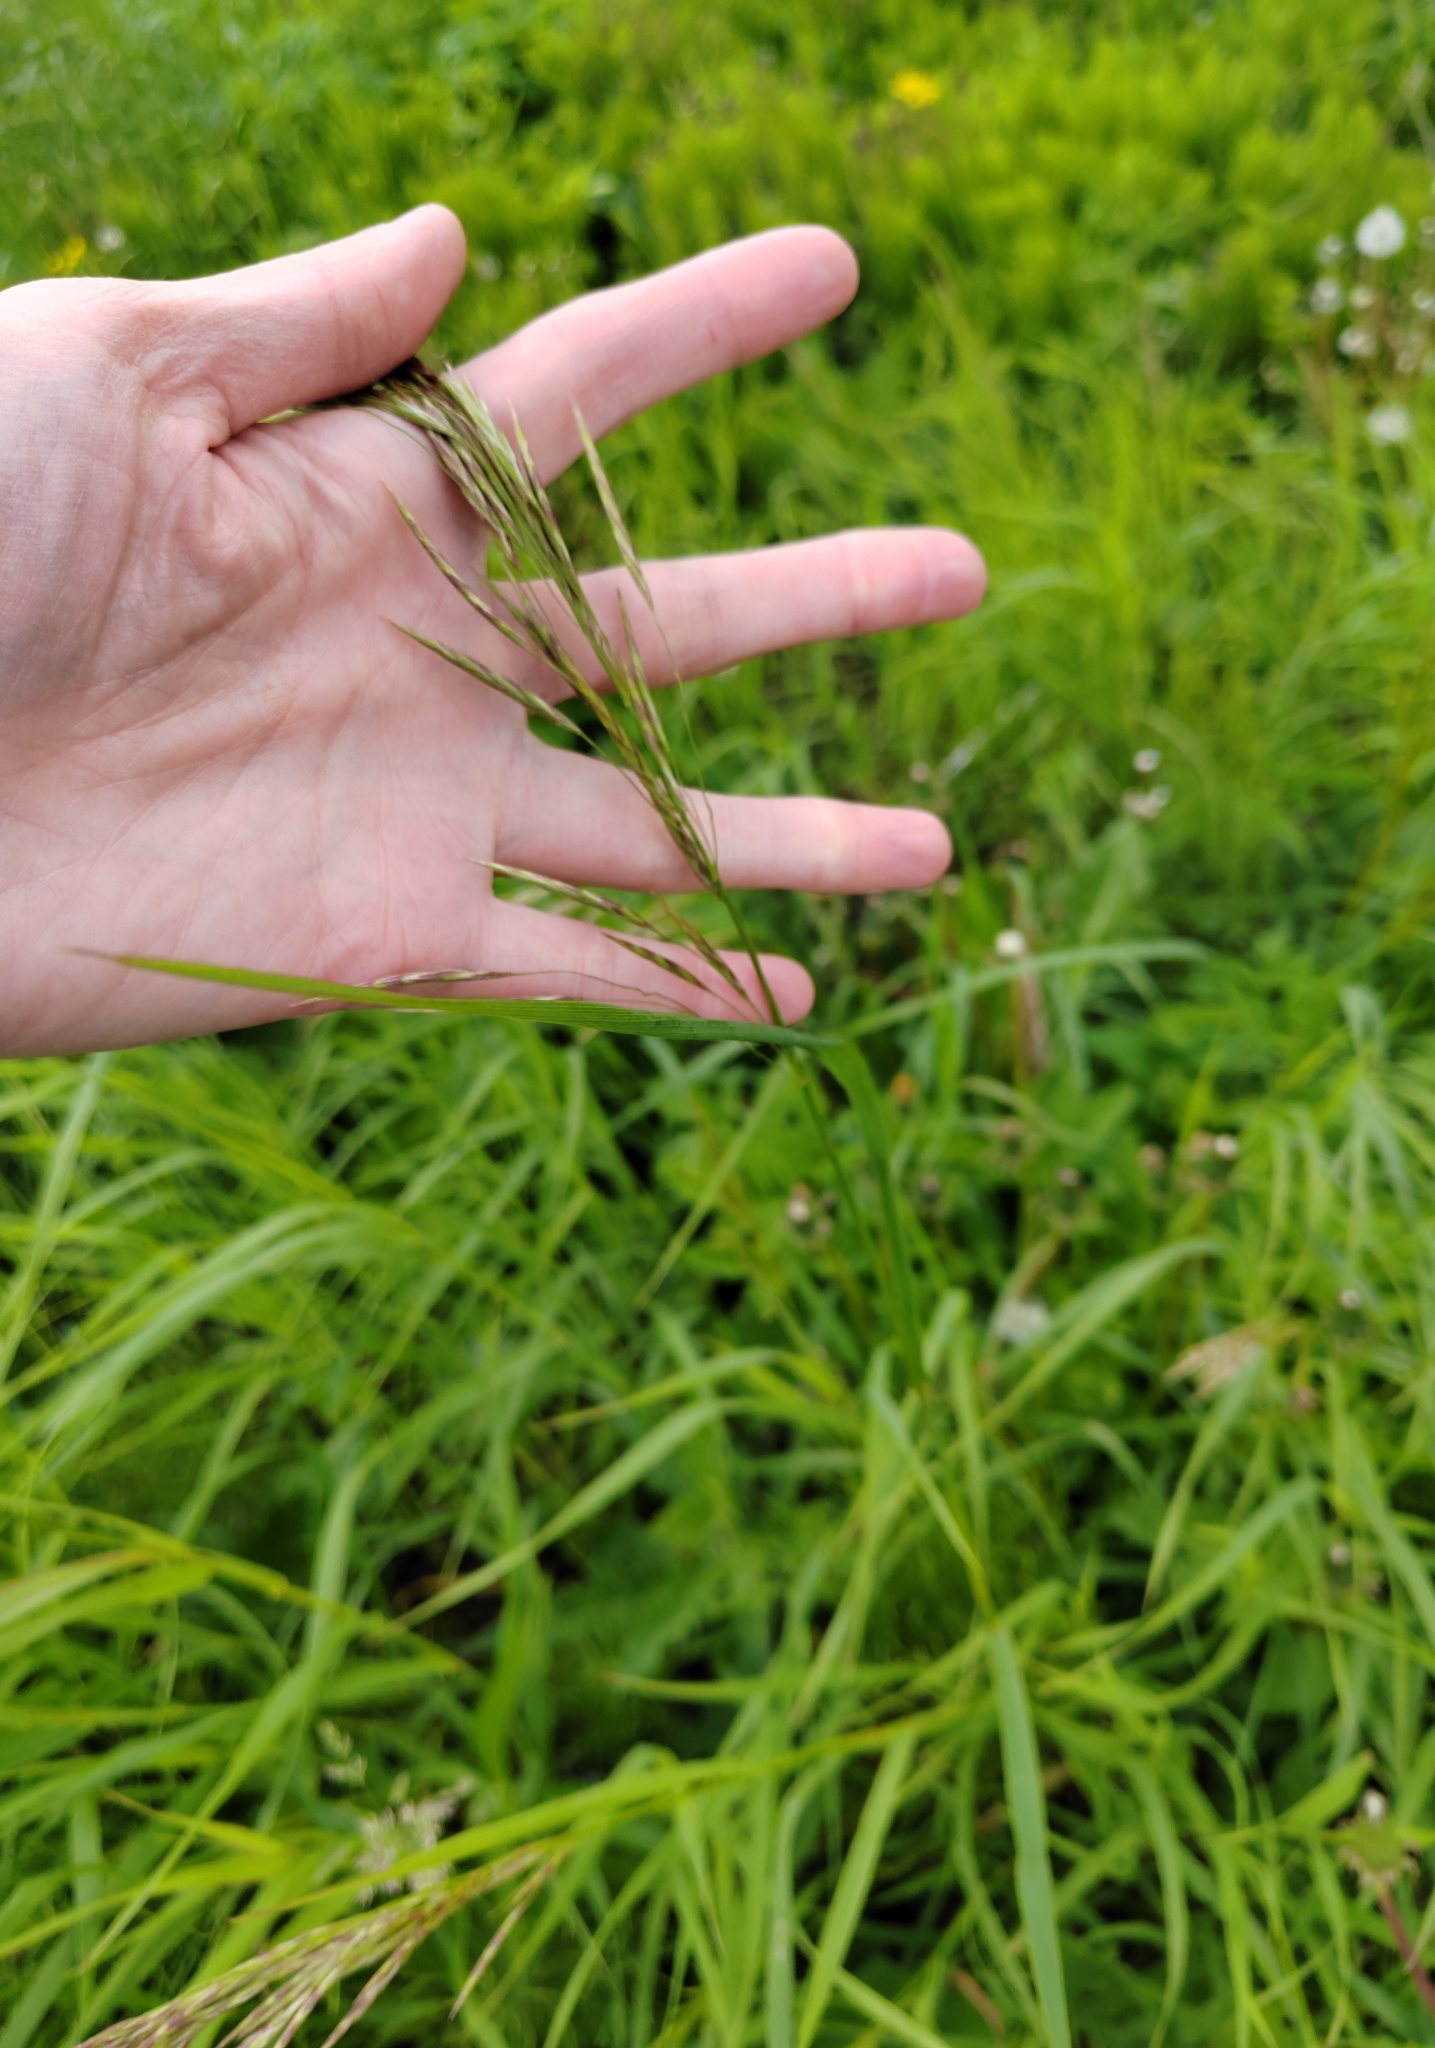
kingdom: Plantae
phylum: Tracheophyta
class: Liliopsida
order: Poales
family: Poaceae
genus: Bromus
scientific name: Bromus inermis
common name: Smooth brome
